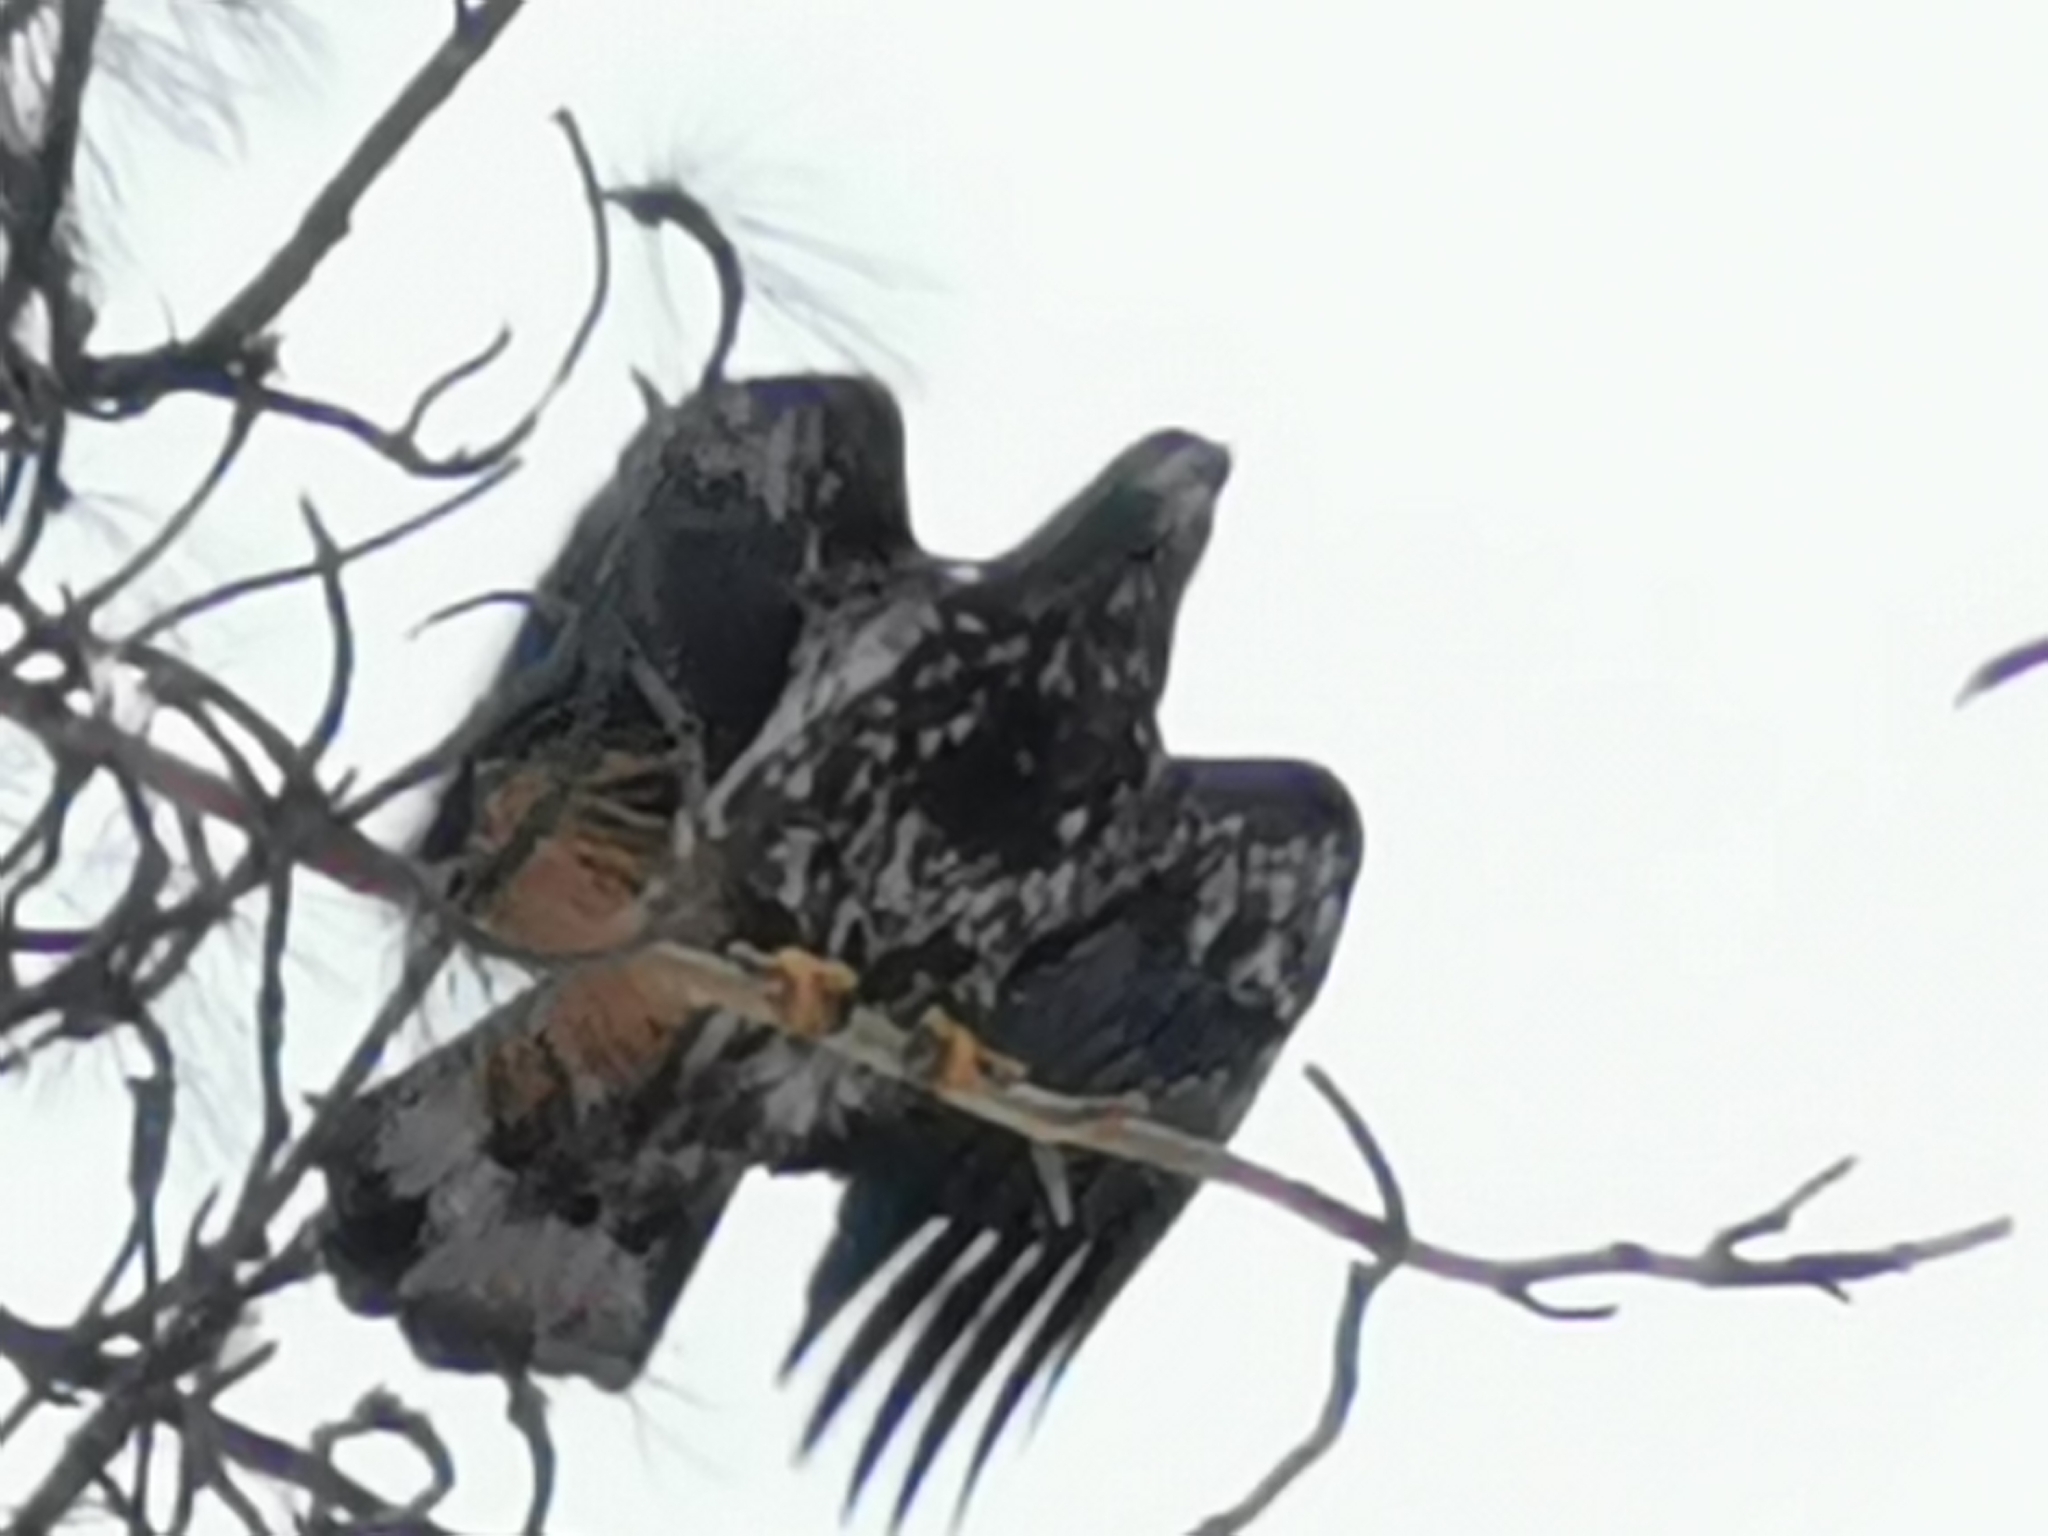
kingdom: Animalia
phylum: Chordata
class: Aves
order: Accipitriformes
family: Accipitridae
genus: Haliaeetus
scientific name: Haliaeetus leucocephalus
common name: Bald eagle
